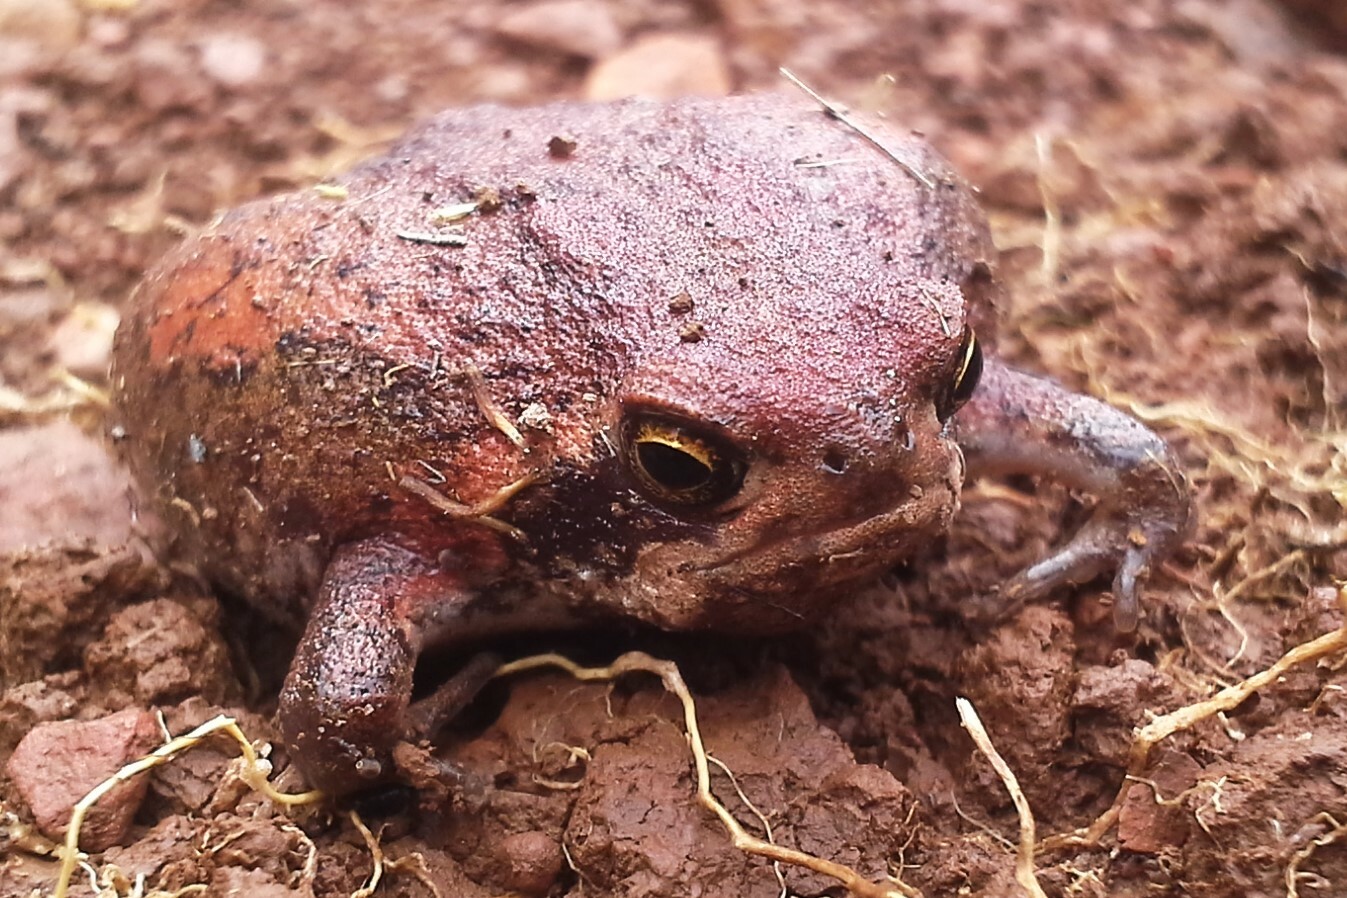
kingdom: Animalia
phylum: Chordata
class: Amphibia
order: Anura
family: Brevicipitidae
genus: Breviceps
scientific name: Breviceps mossambicus
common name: Mozambique rain frog
